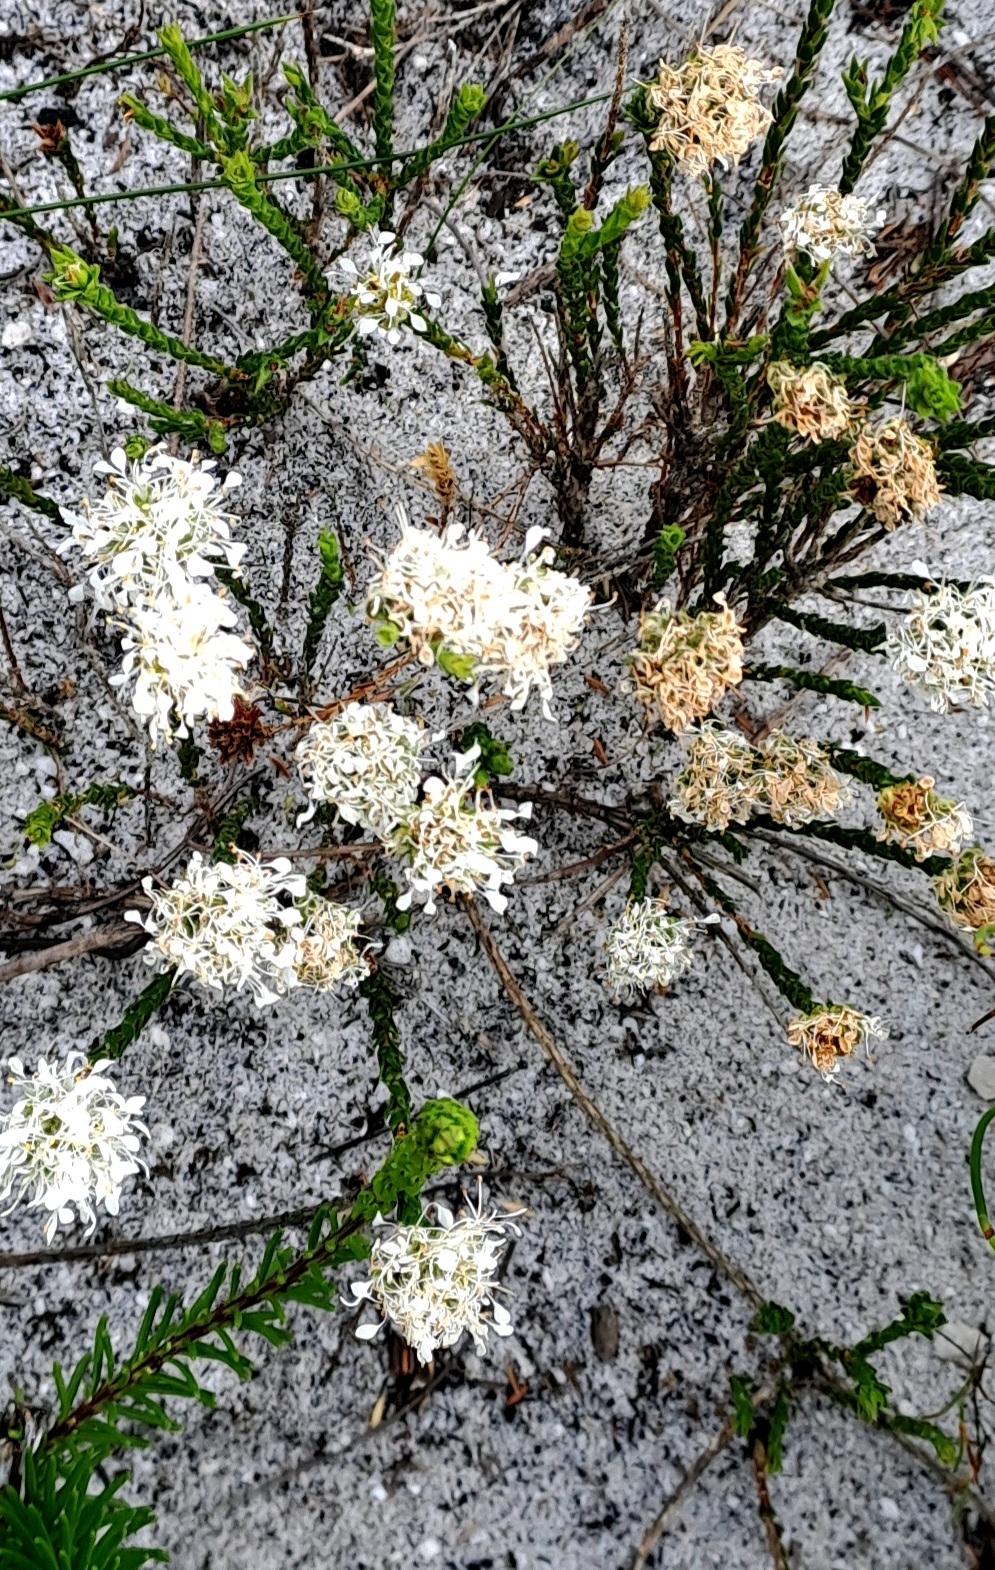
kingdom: Plantae
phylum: Tracheophyta
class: Magnoliopsida
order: Sapindales
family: Rutaceae
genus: Agathosma
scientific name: Agathosma imbricata
